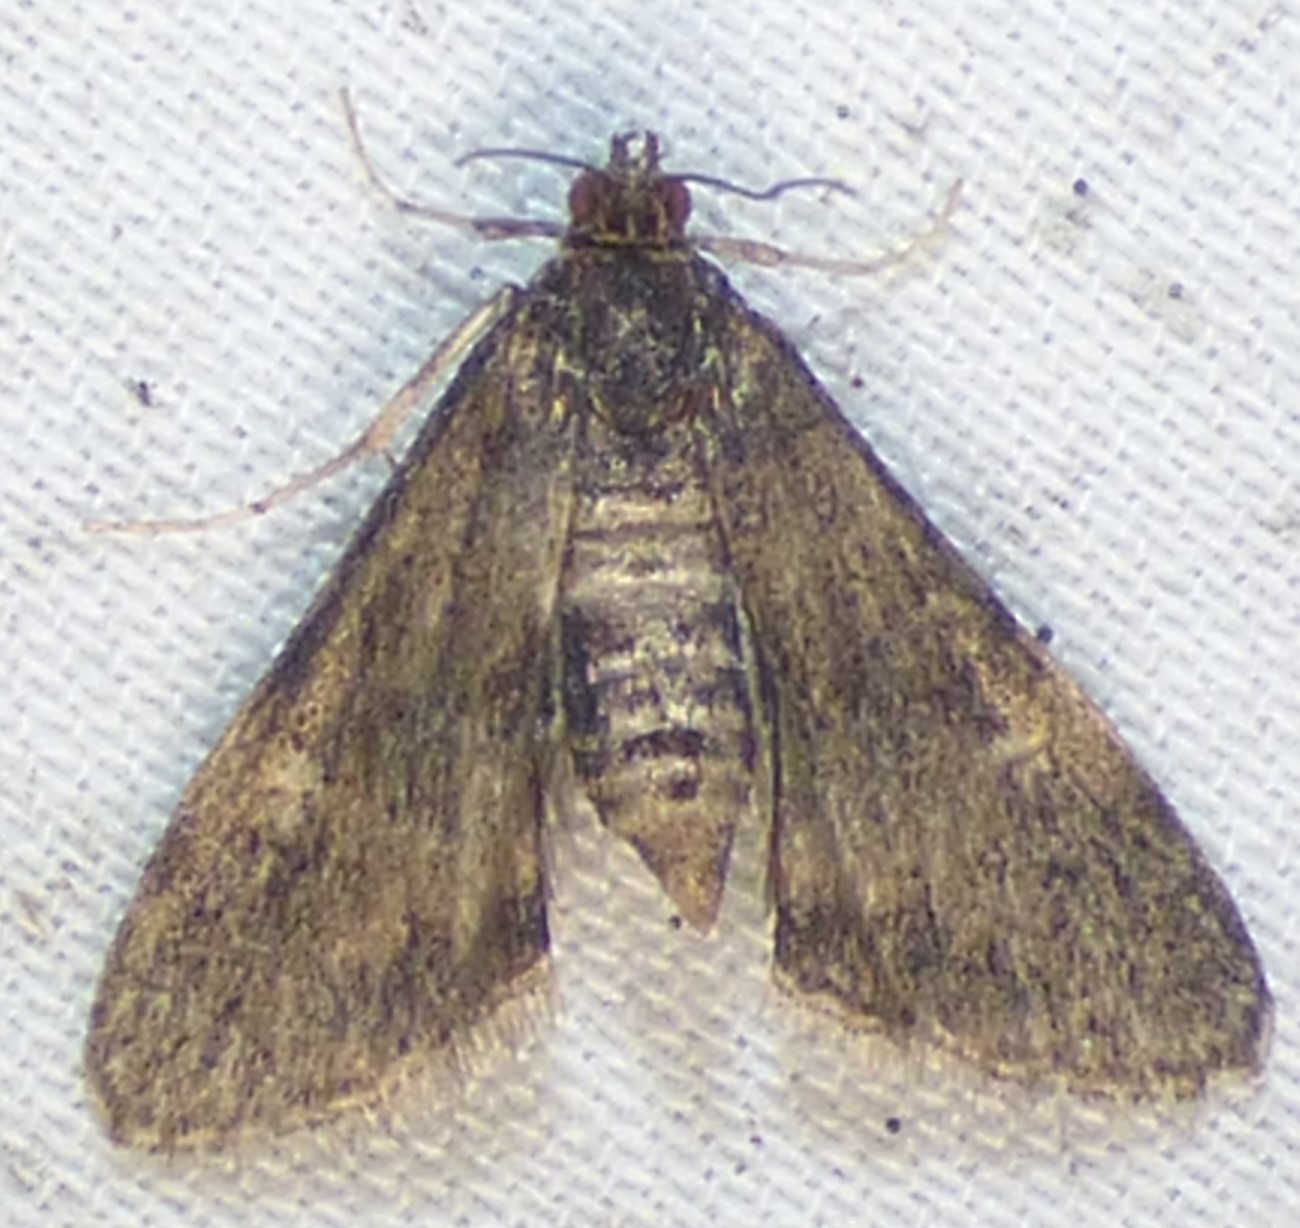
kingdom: Animalia
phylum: Arthropoda
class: Insecta
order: Lepidoptera
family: Crambidae
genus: Elophila
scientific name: Elophila obliteralis
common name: Waterlily leafcutter moth
